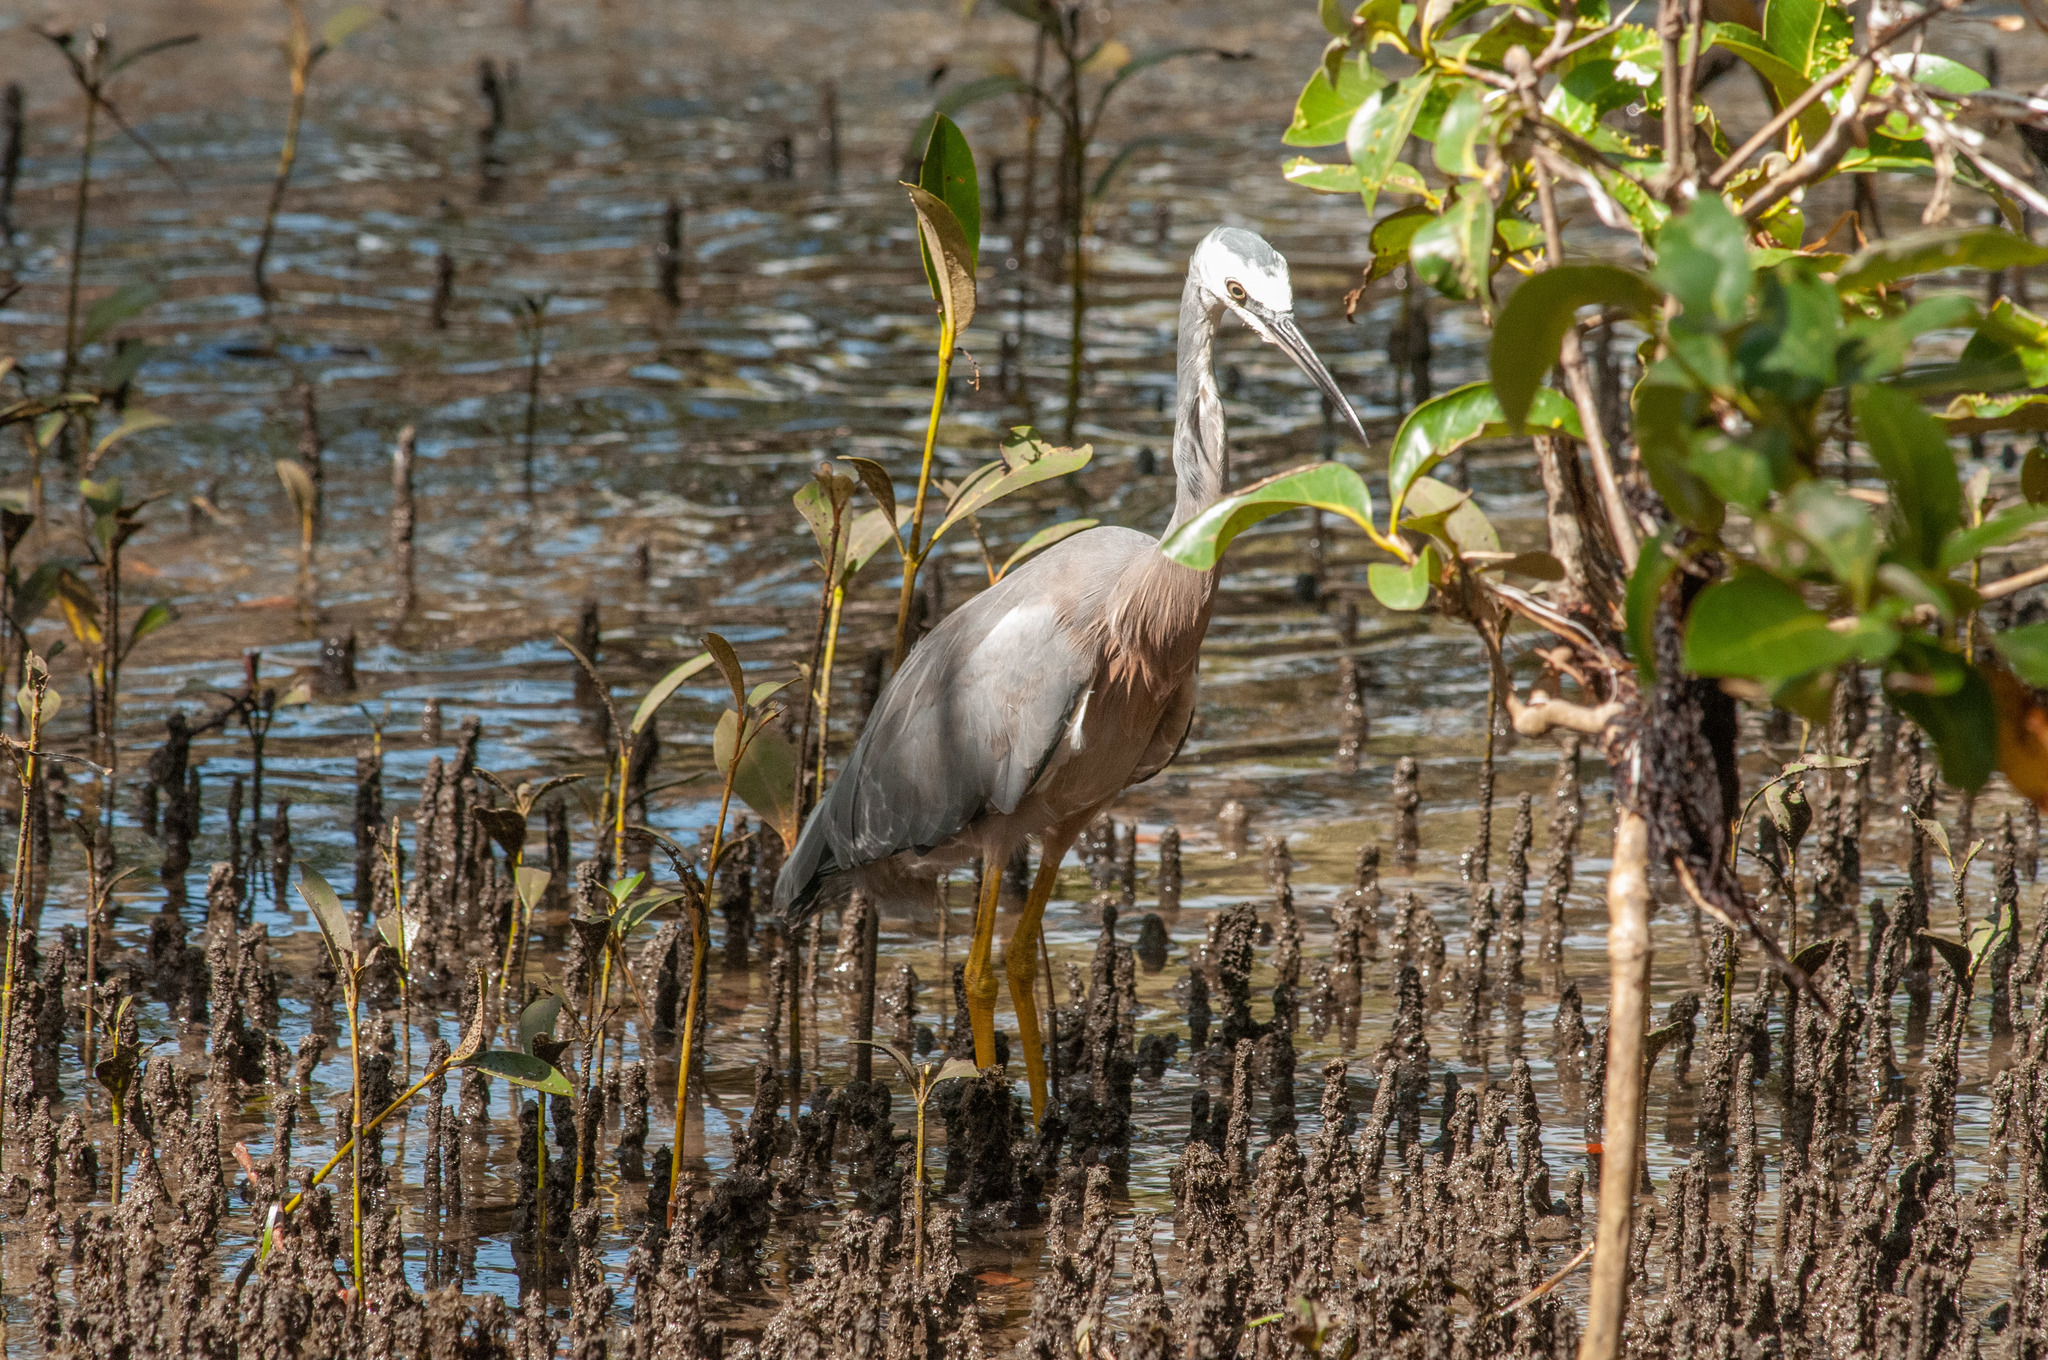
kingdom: Animalia
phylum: Chordata
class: Aves
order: Pelecaniformes
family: Ardeidae
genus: Egretta
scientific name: Egretta novaehollandiae
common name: White-faced heron
